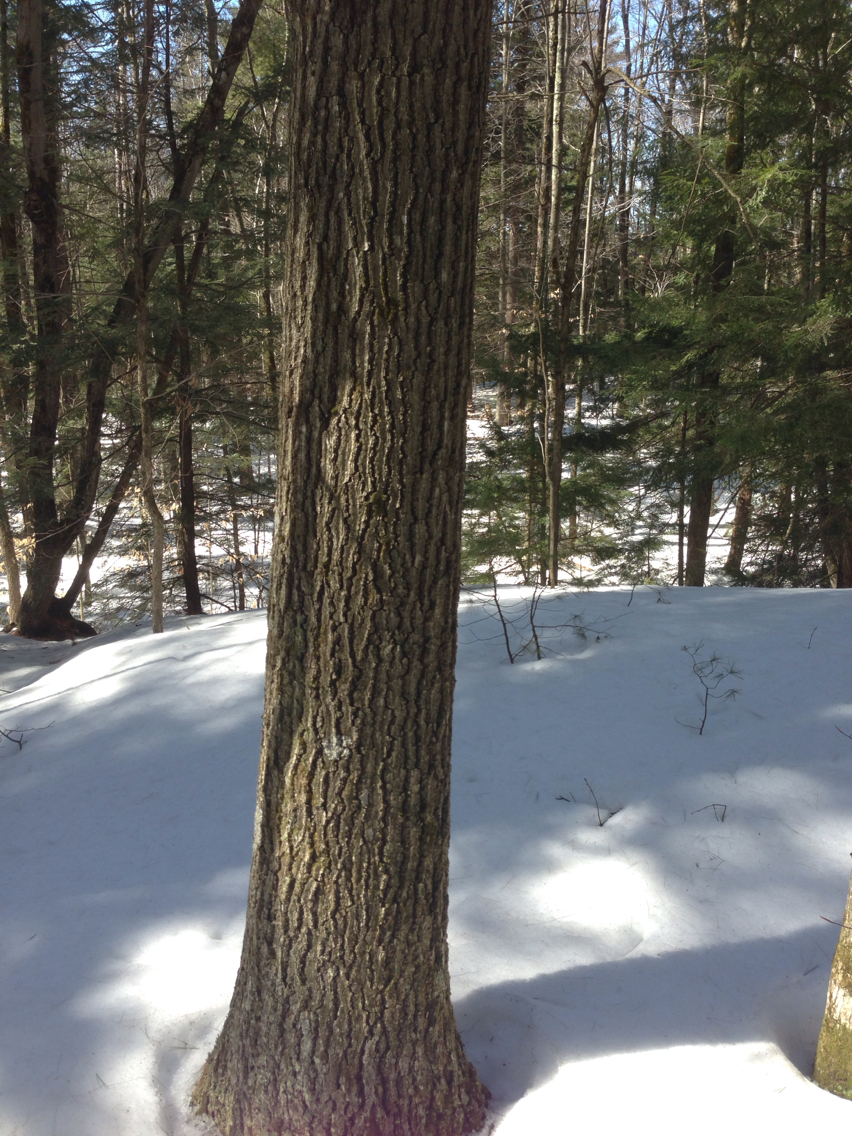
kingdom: Plantae
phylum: Tracheophyta
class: Magnoliopsida
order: Fagales
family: Fagaceae
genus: Quercus
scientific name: Quercus rubra
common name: Red oak
